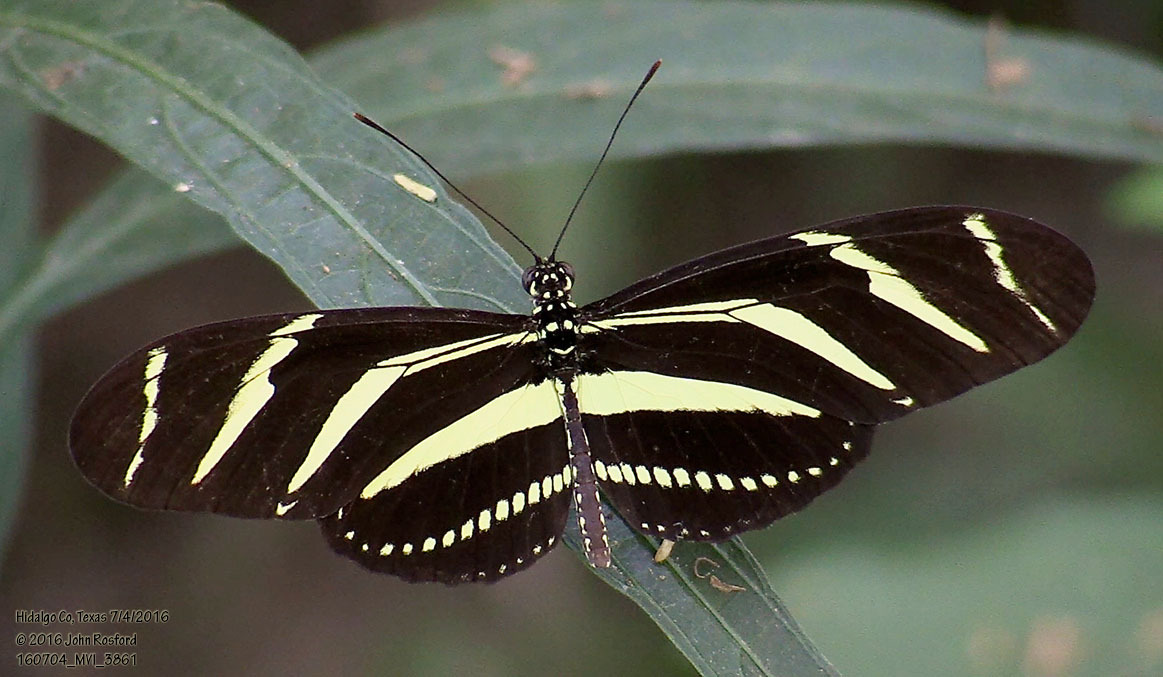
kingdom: Animalia
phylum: Arthropoda
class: Insecta
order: Lepidoptera
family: Nymphalidae
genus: Heliconius
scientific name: Heliconius charithonia
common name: Zebra long wing
